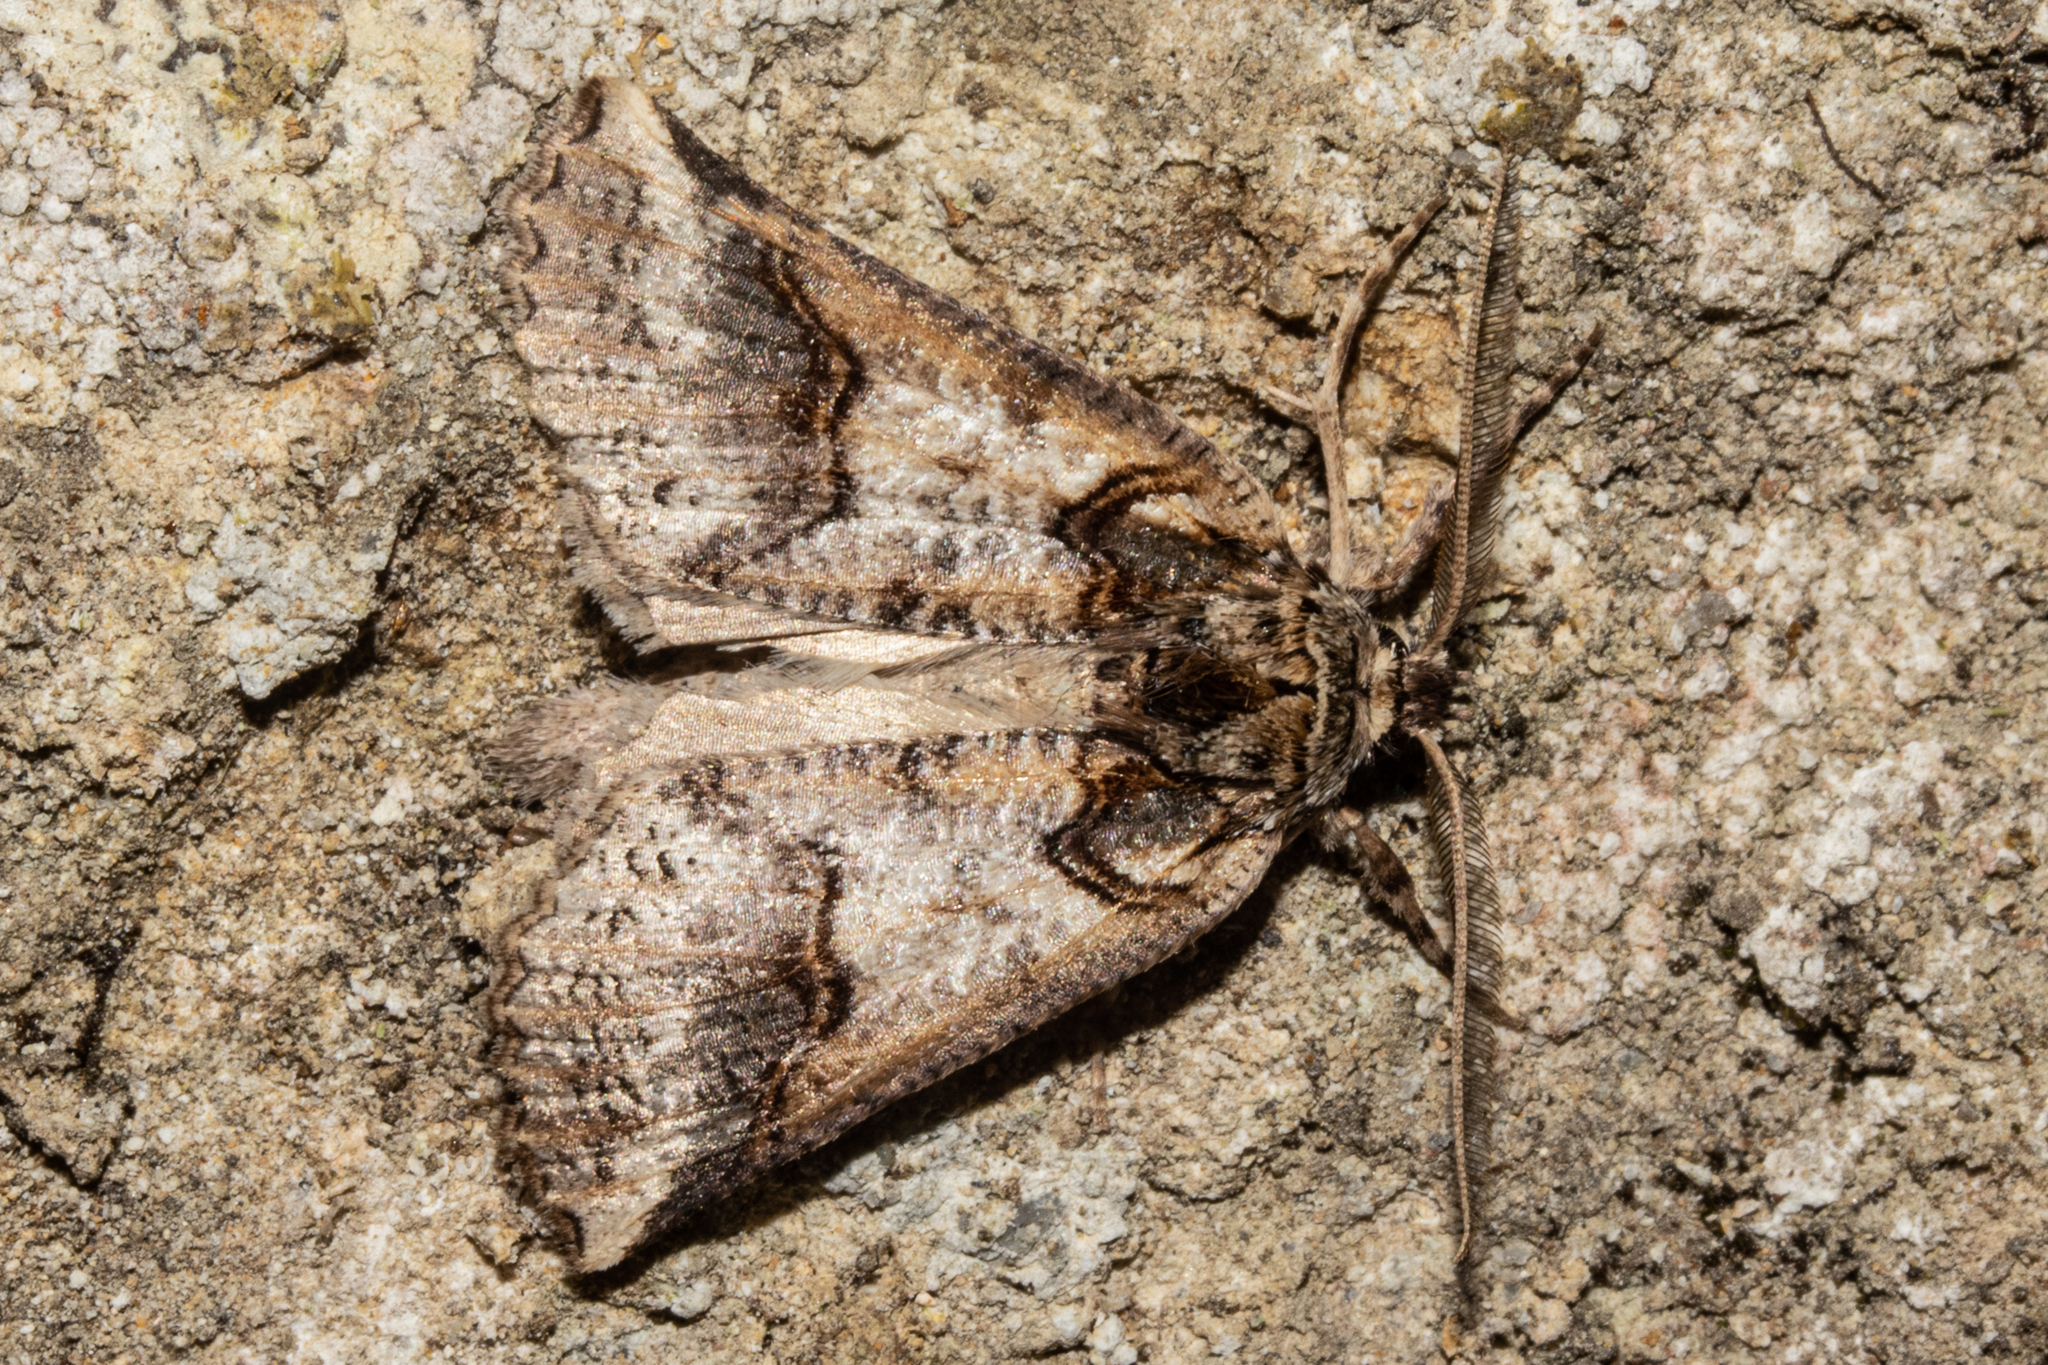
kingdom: Animalia
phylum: Arthropoda
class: Insecta
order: Lepidoptera
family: Geometridae
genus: Declana
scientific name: Declana
